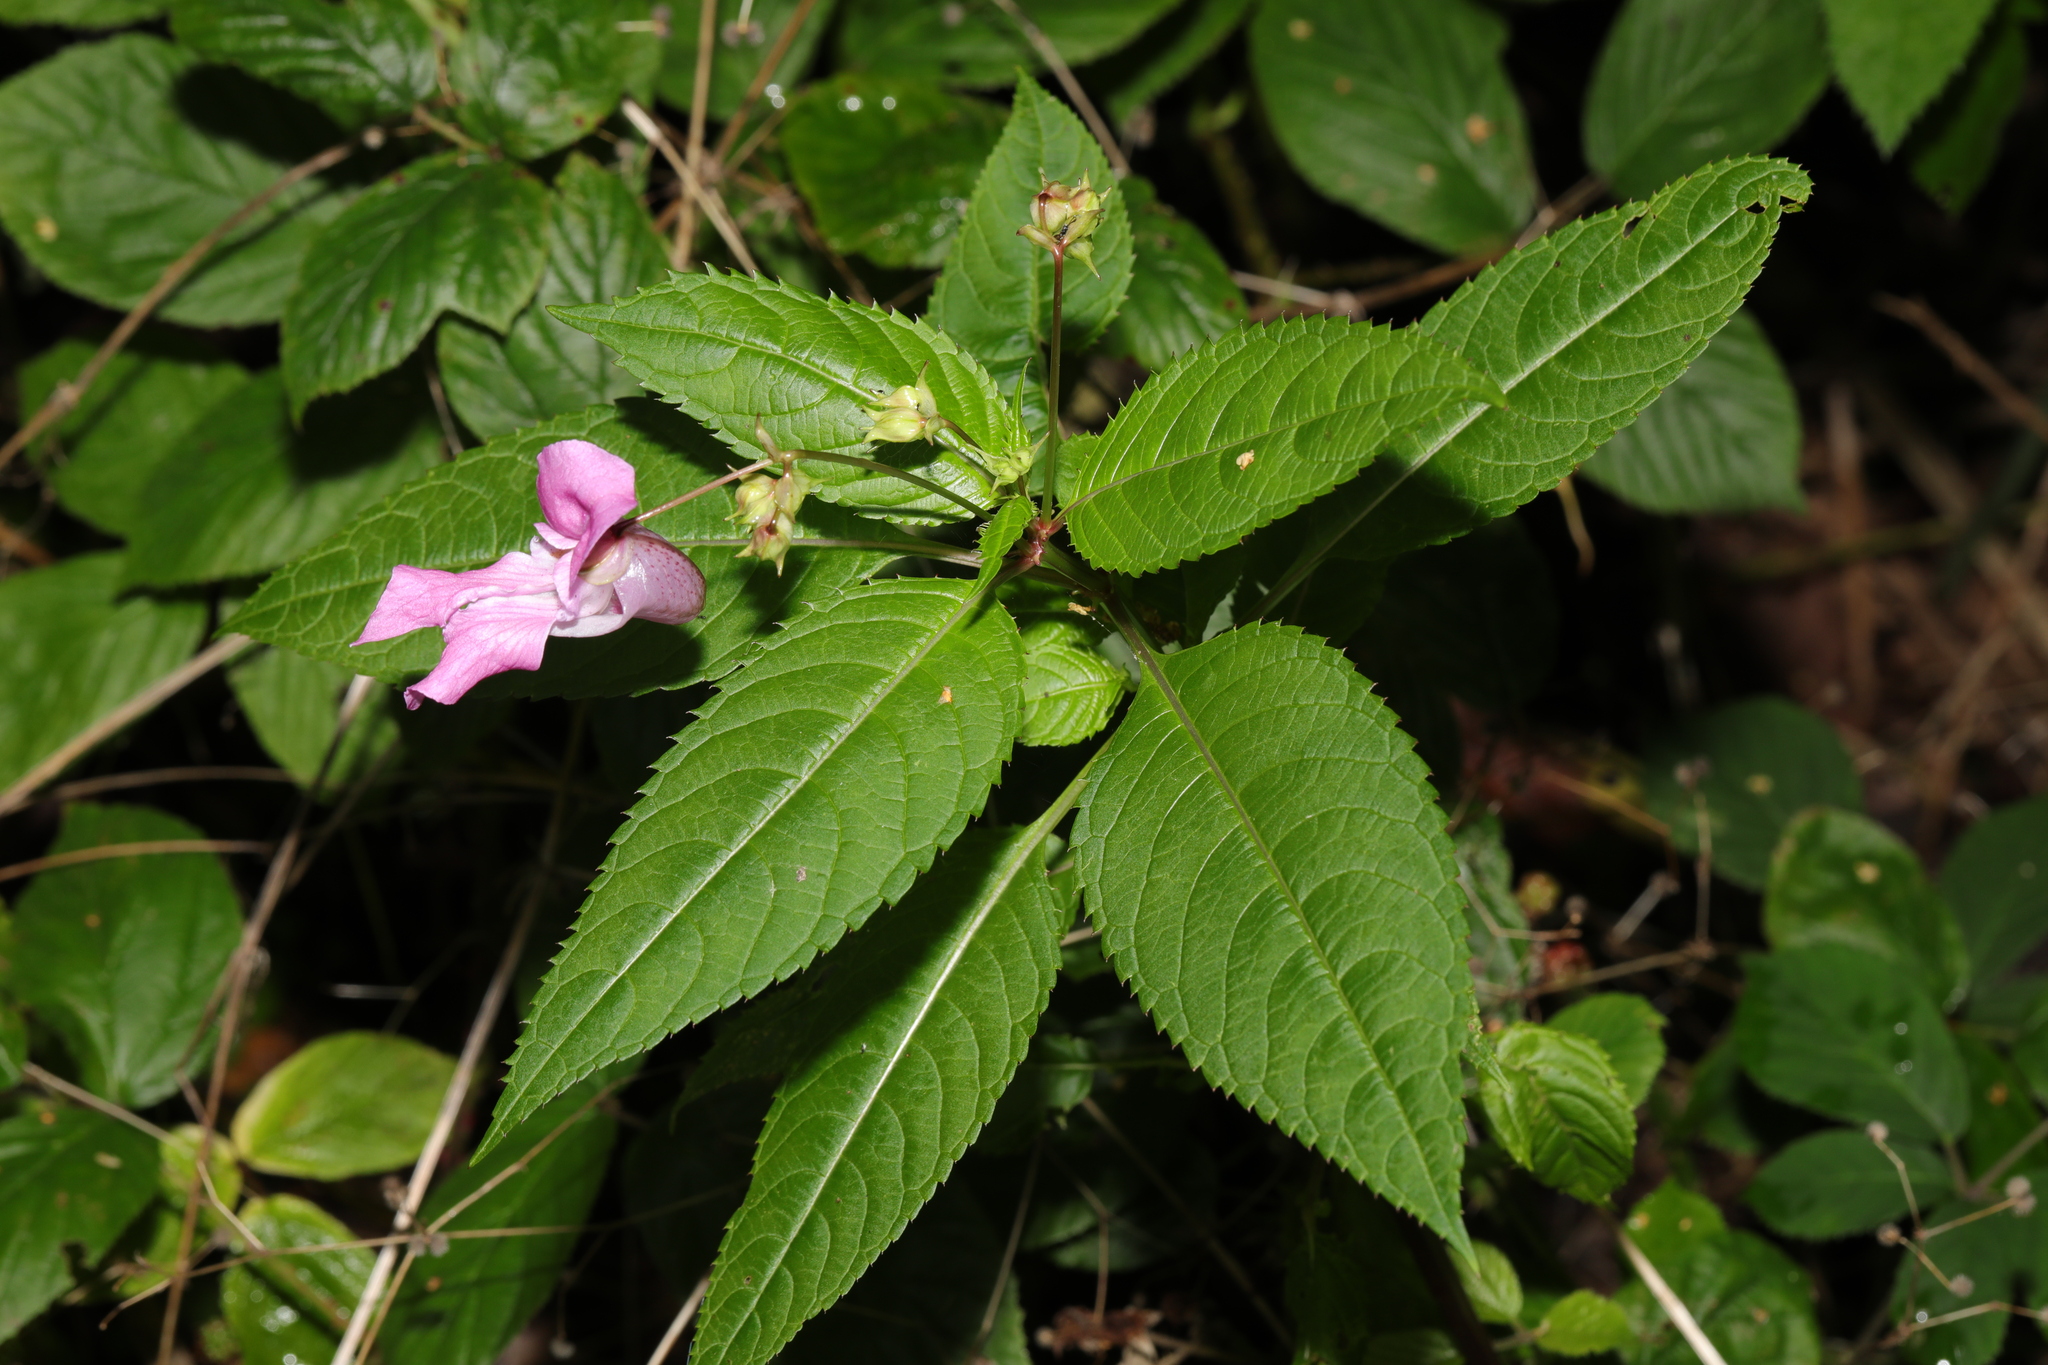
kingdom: Plantae
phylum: Tracheophyta
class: Magnoliopsida
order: Ericales
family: Balsaminaceae
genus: Impatiens
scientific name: Impatiens glandulifera
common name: Himalayan balsam
